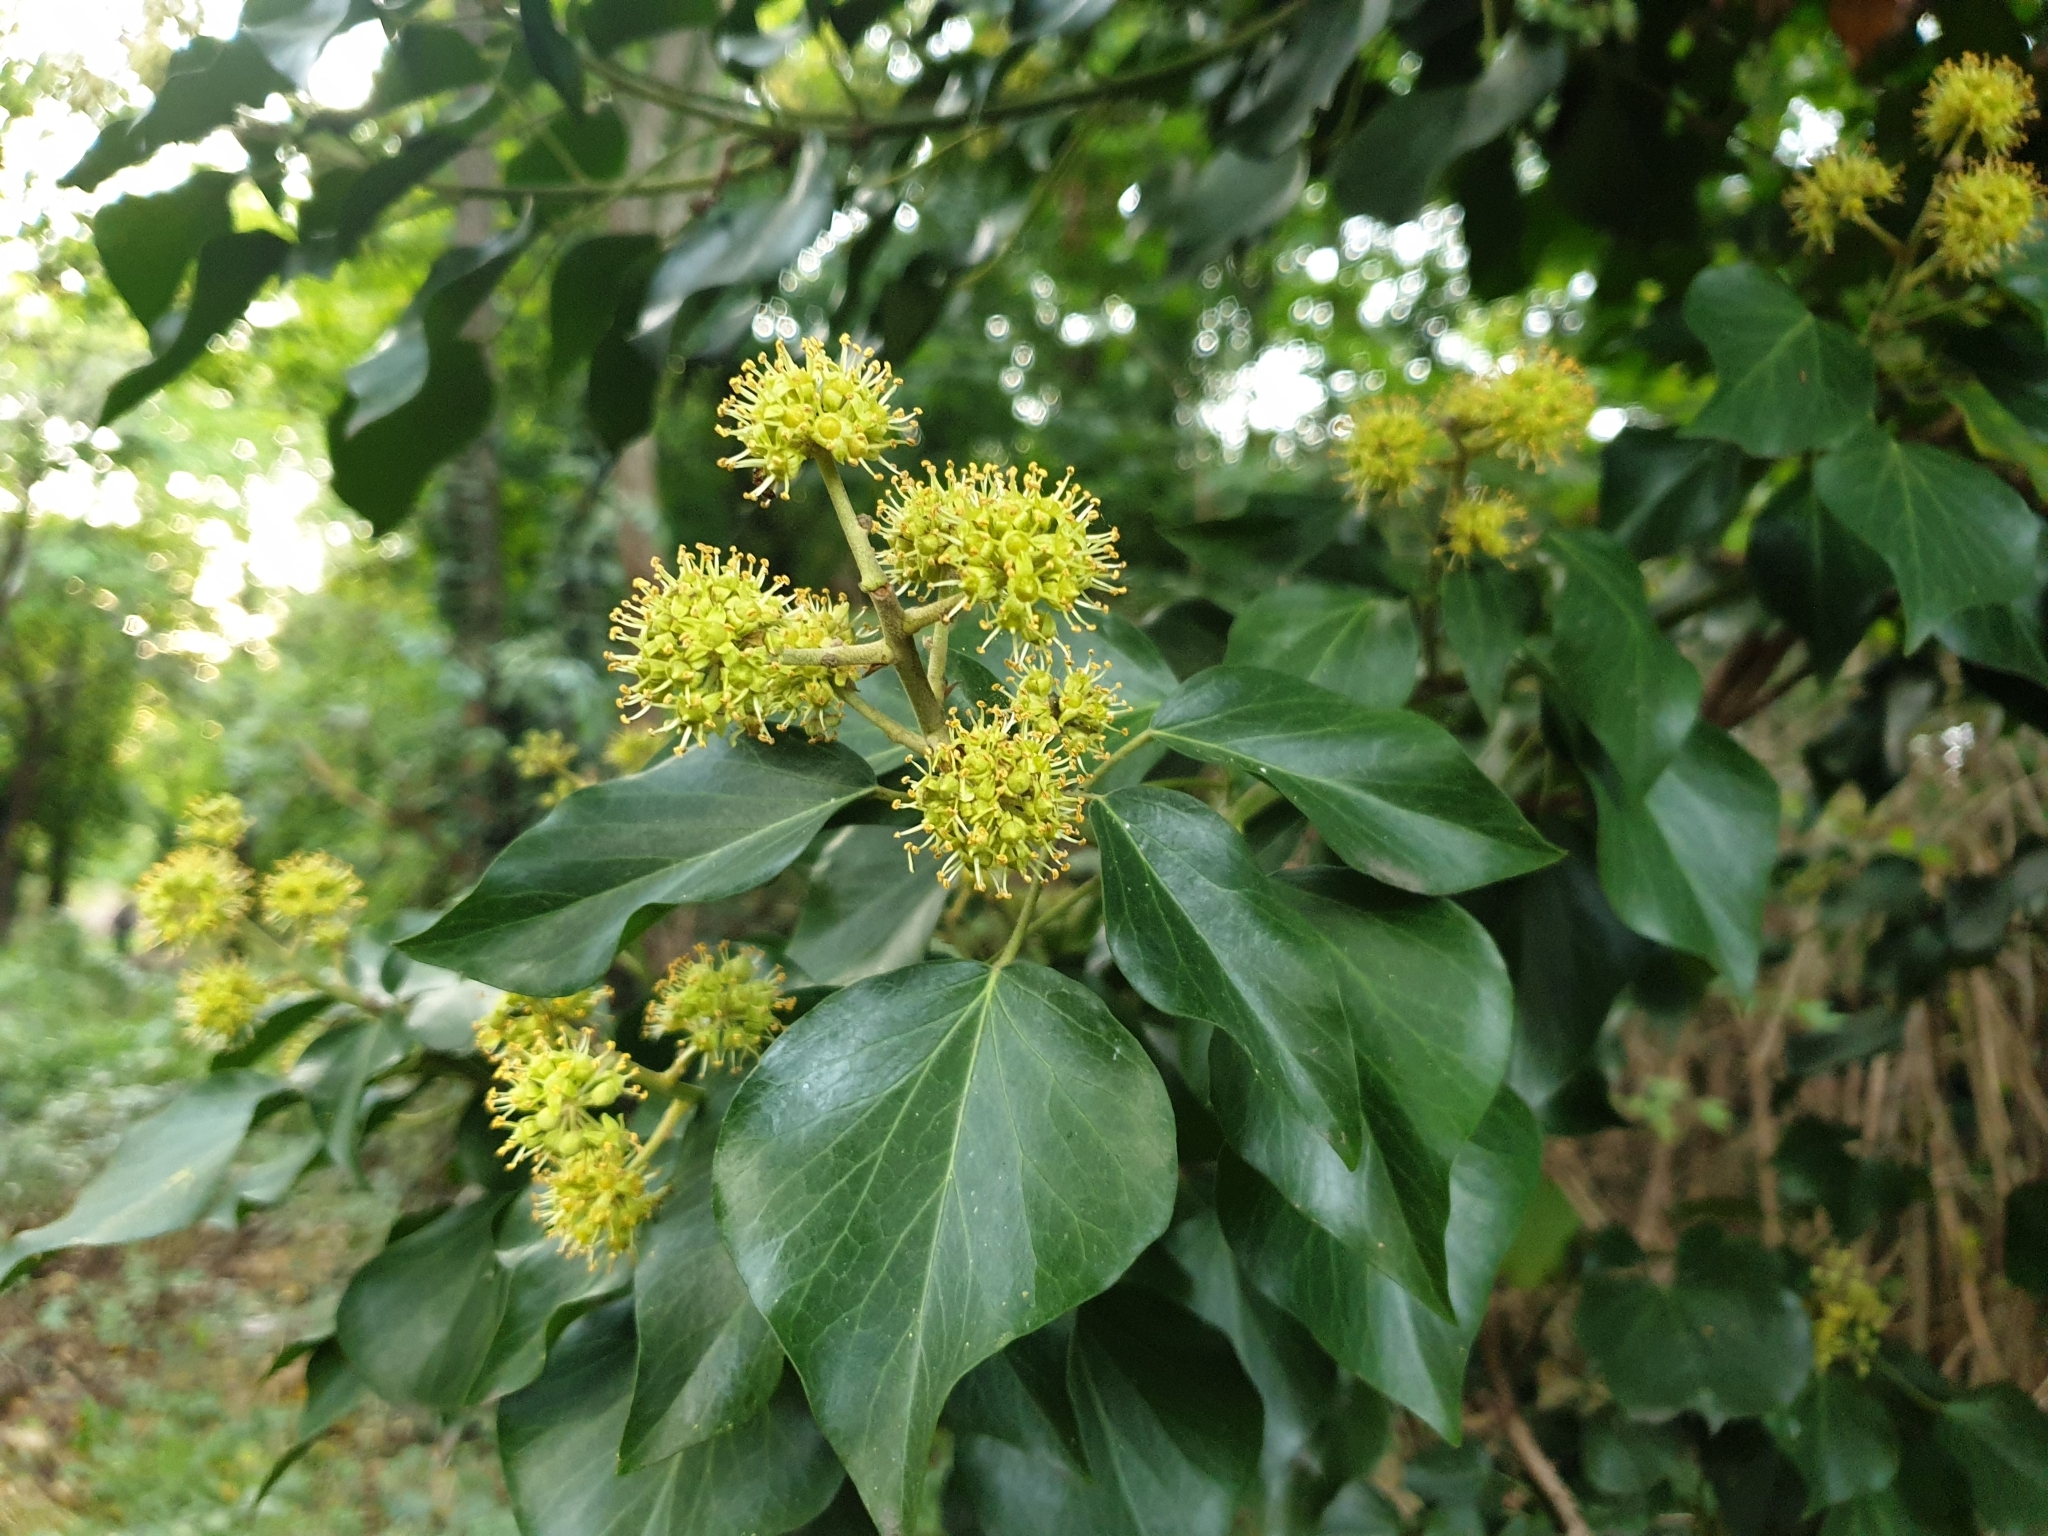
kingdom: Plantae
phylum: Tracheophyta
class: Magnoliopsida
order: Apiales
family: Araliaceae
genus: Hedera
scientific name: Hedera helix
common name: Ivy
